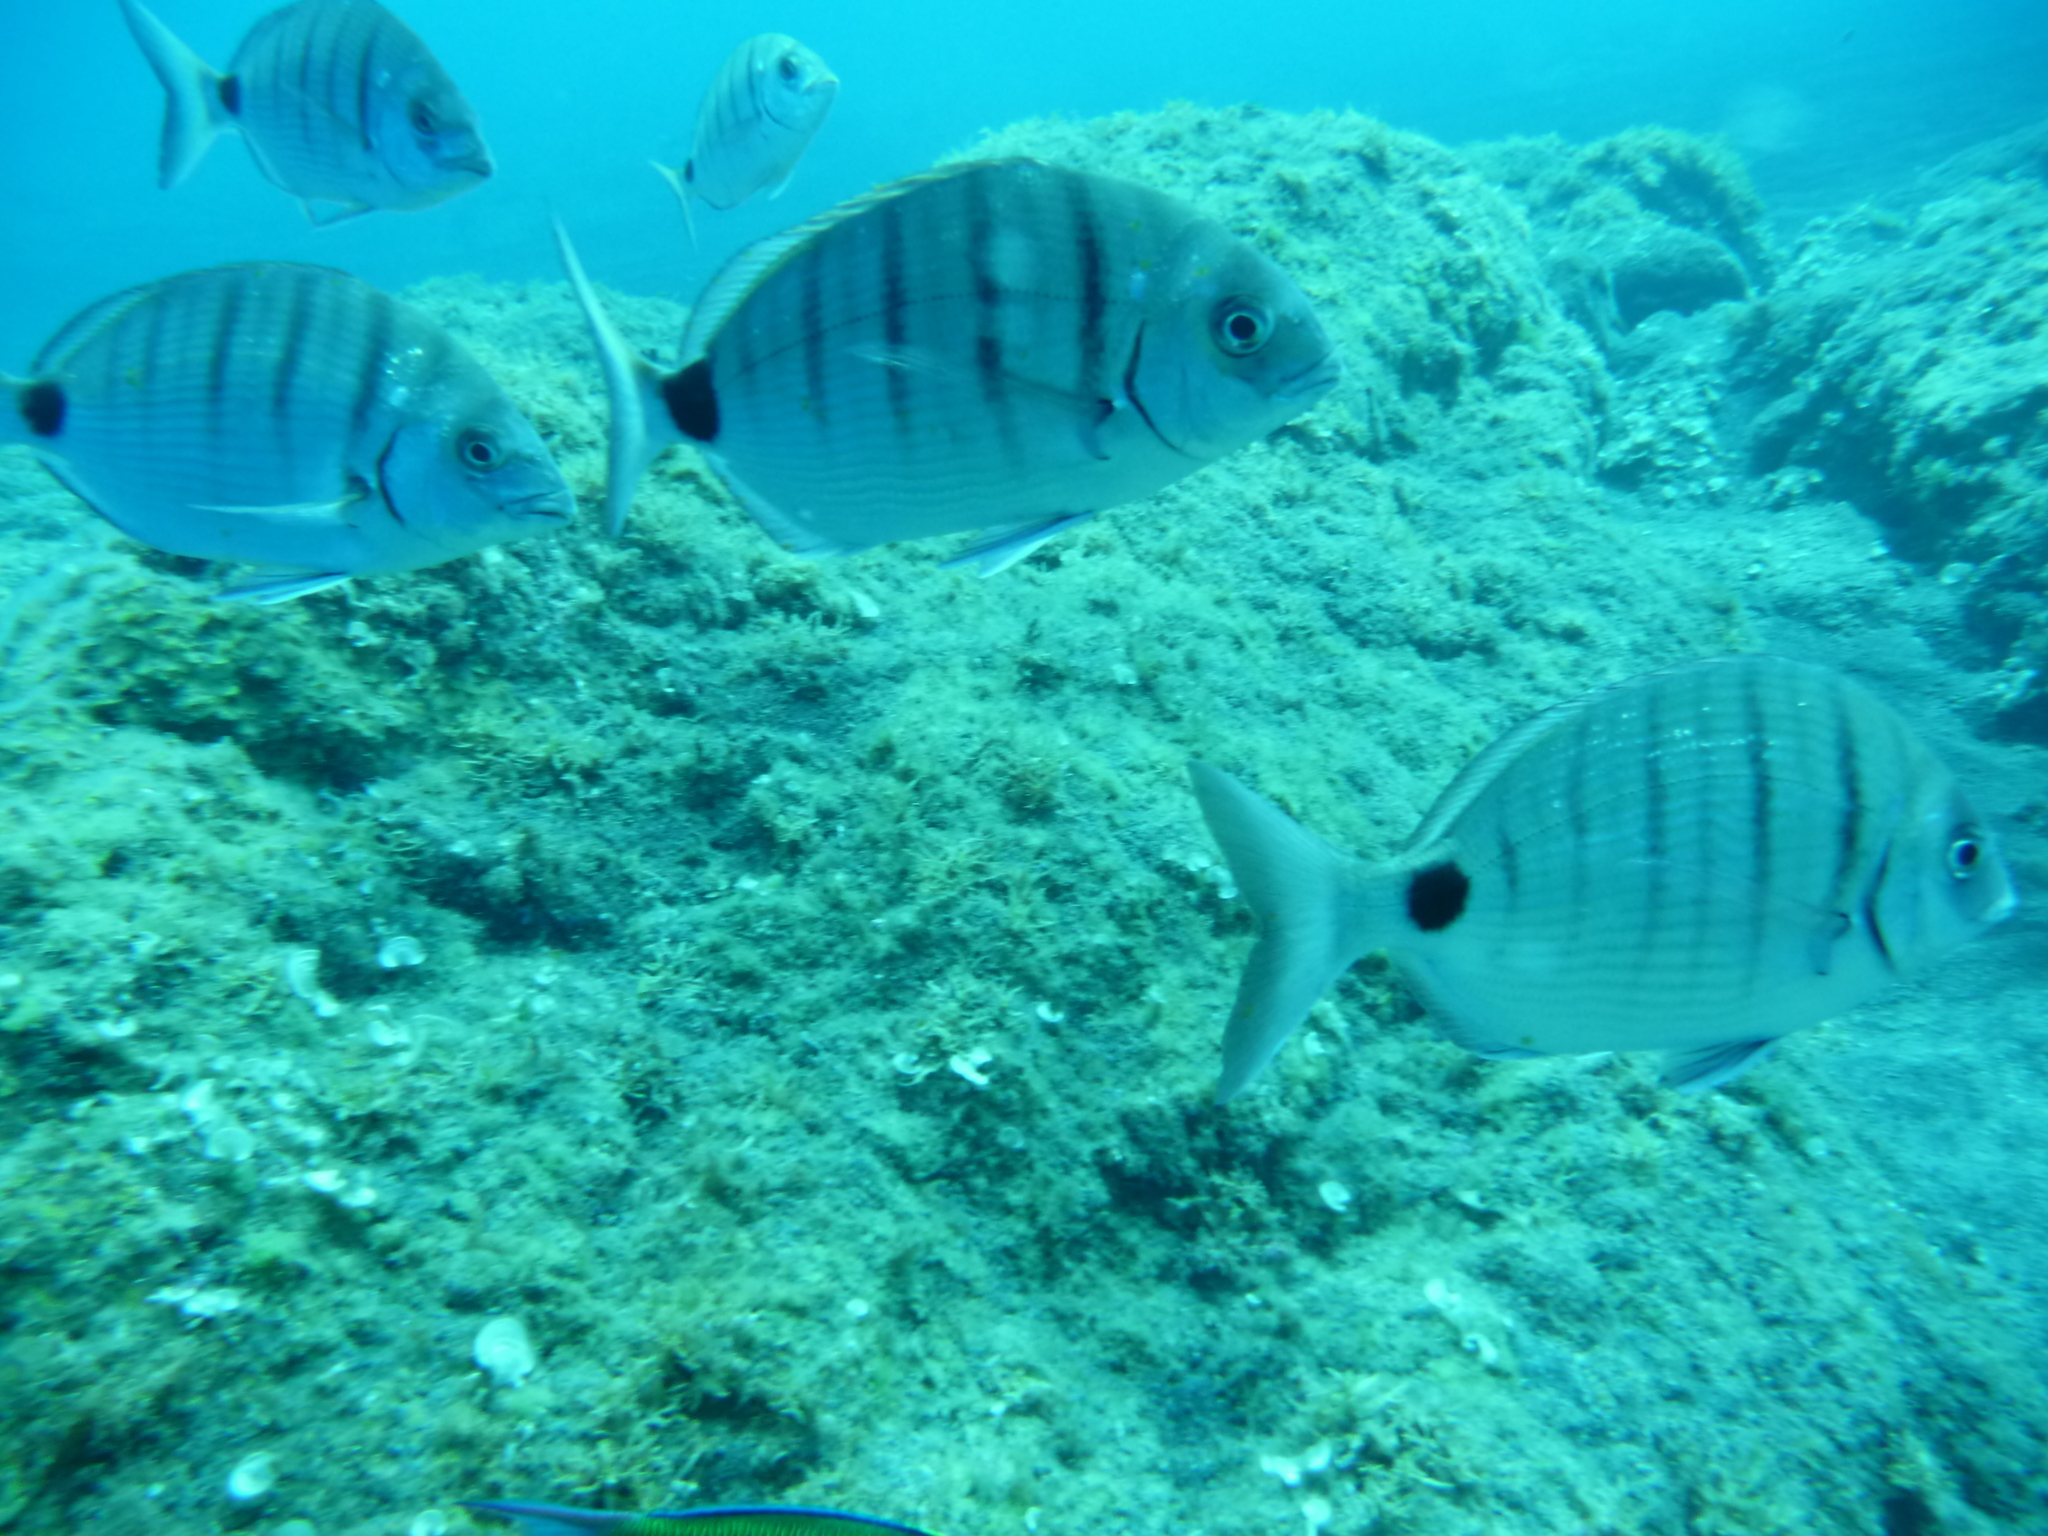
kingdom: Animalia
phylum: Chordata
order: Perciformes
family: Sparidae
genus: Diplodus
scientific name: Diplodus cadenati
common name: Moroccan white seabream
